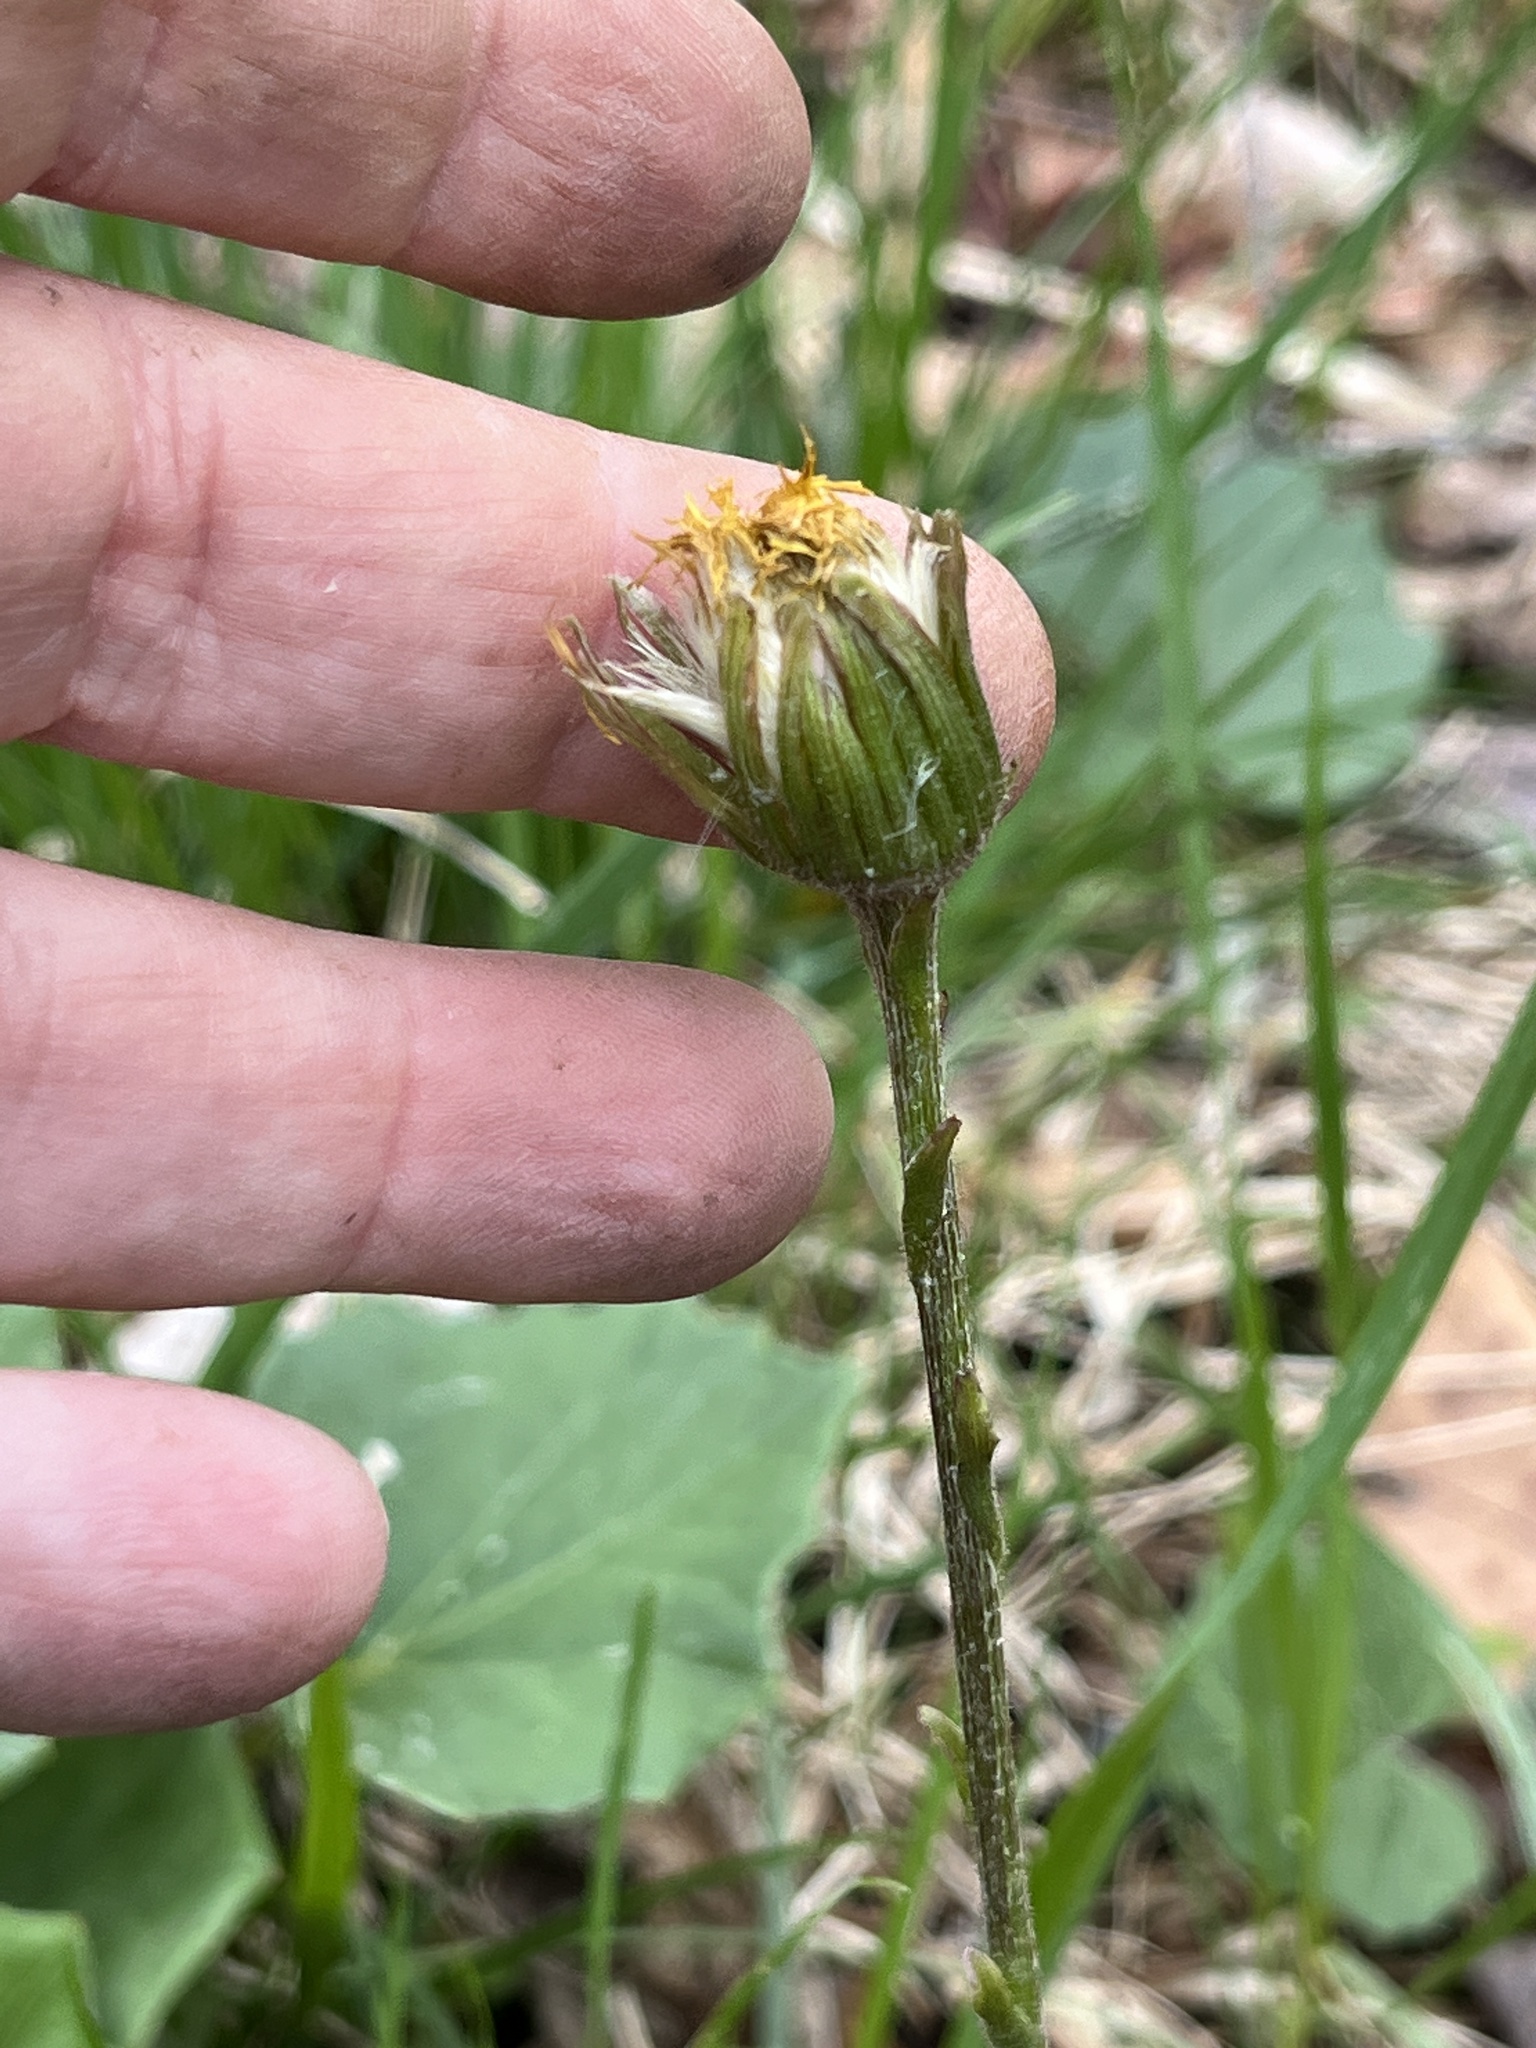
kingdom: Plantae
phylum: Tracheophyta
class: Magnoliopsida
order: Asterales
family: Asteraceae
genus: Tussilago
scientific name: Tussilago farfara
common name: Coltsfoot
